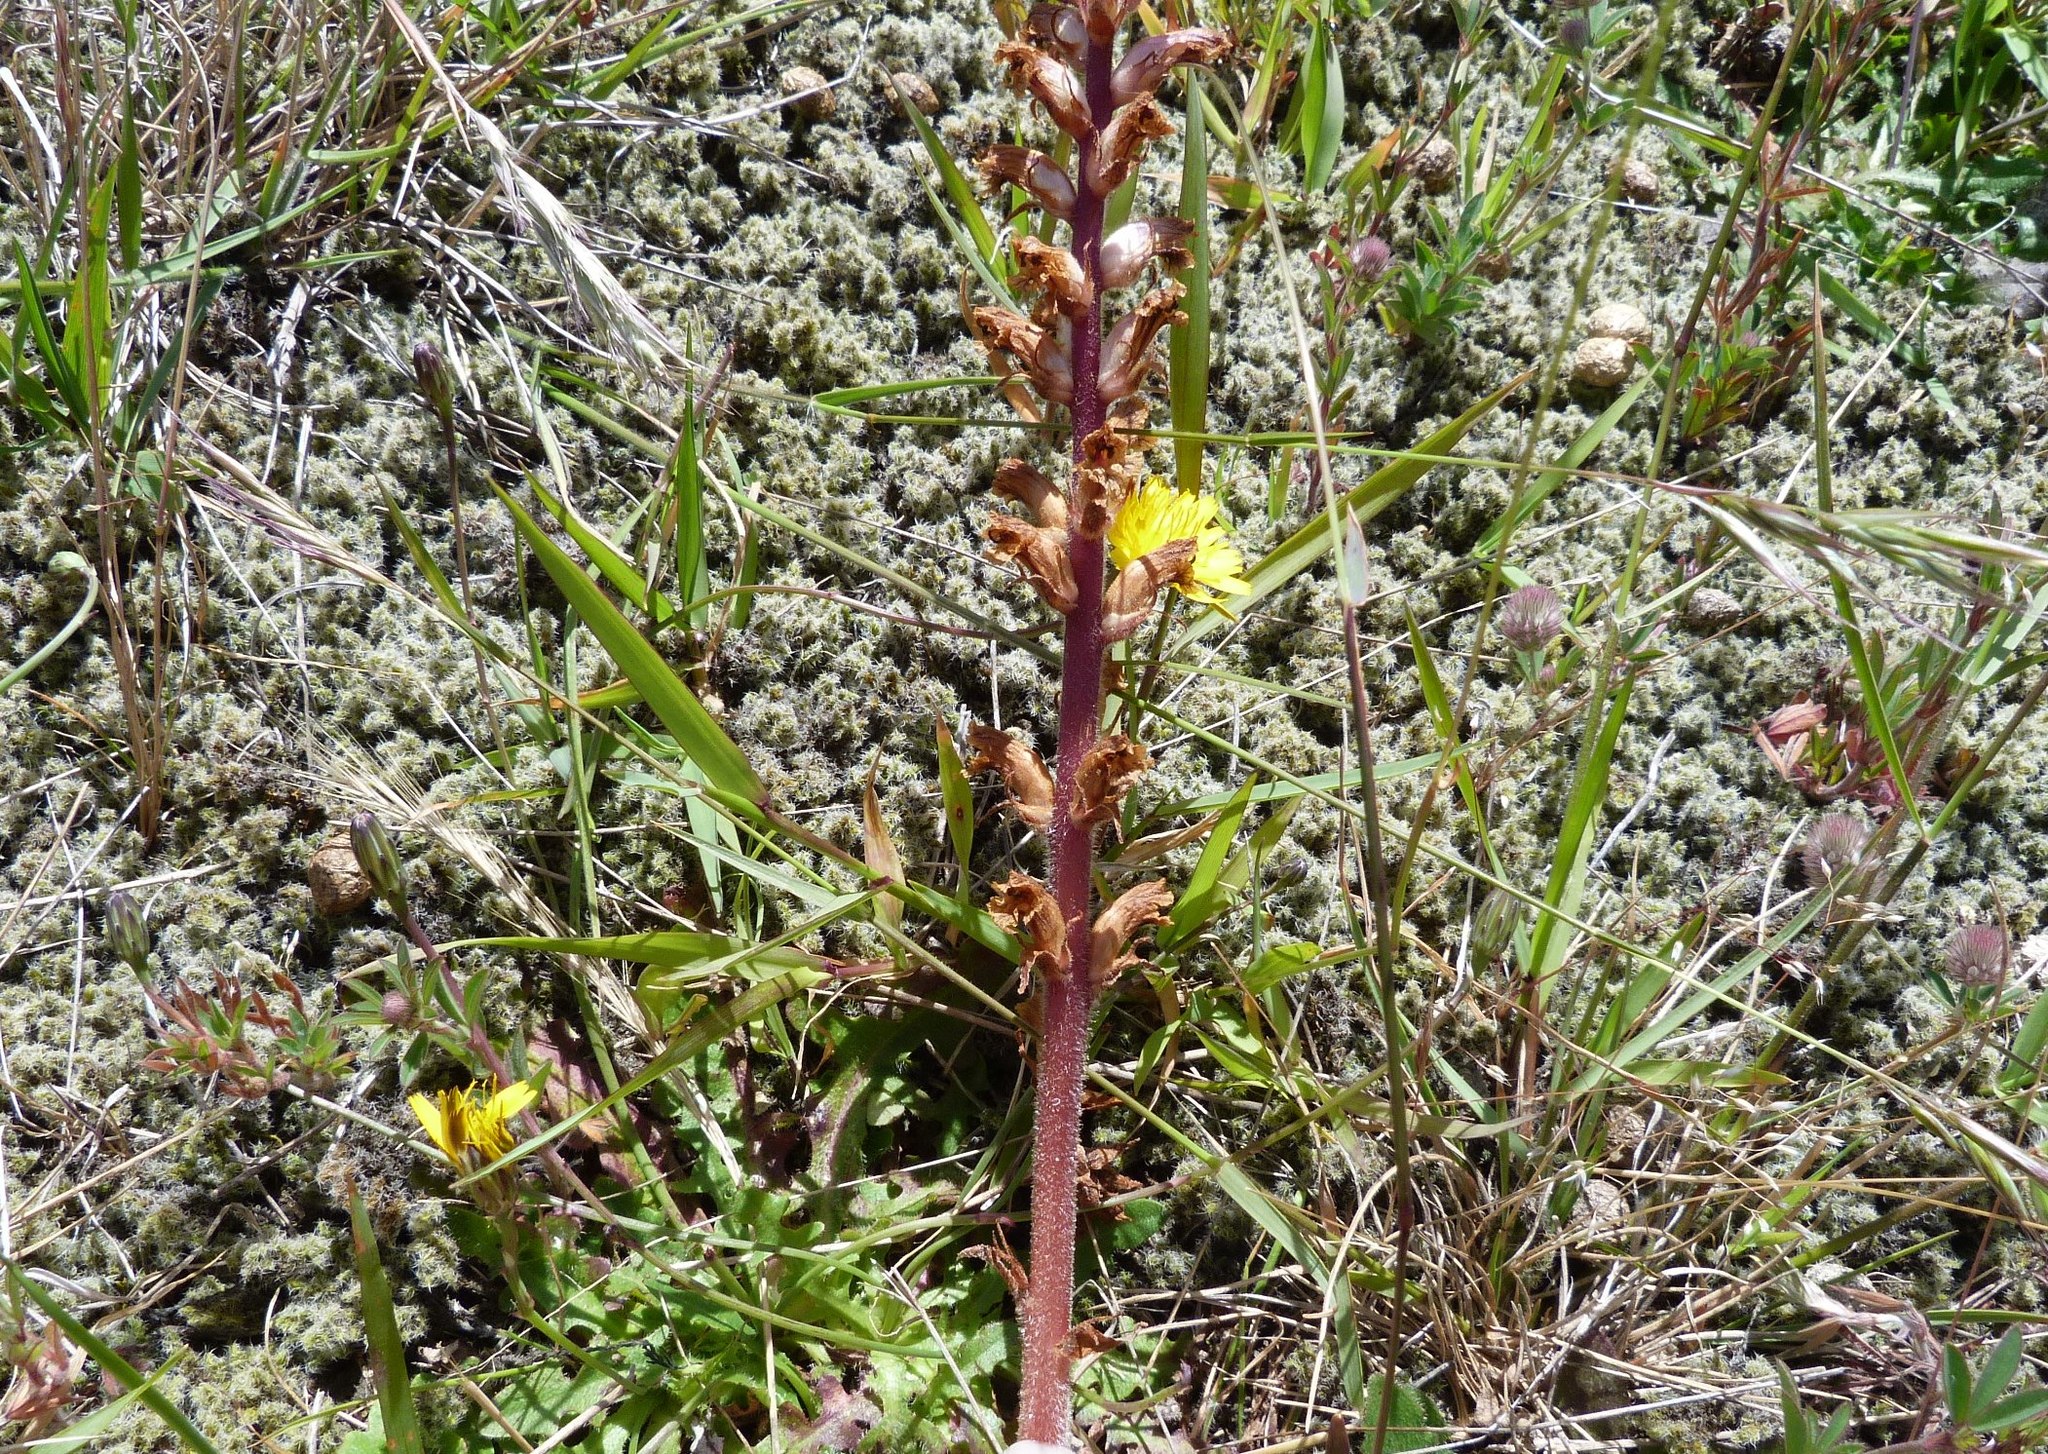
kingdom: Plantae
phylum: Tracheophyta
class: Magnoliopsida
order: Lamiales
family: Orobanchaceae
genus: Orobanche
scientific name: Orobanche minor
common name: Common broomrape
